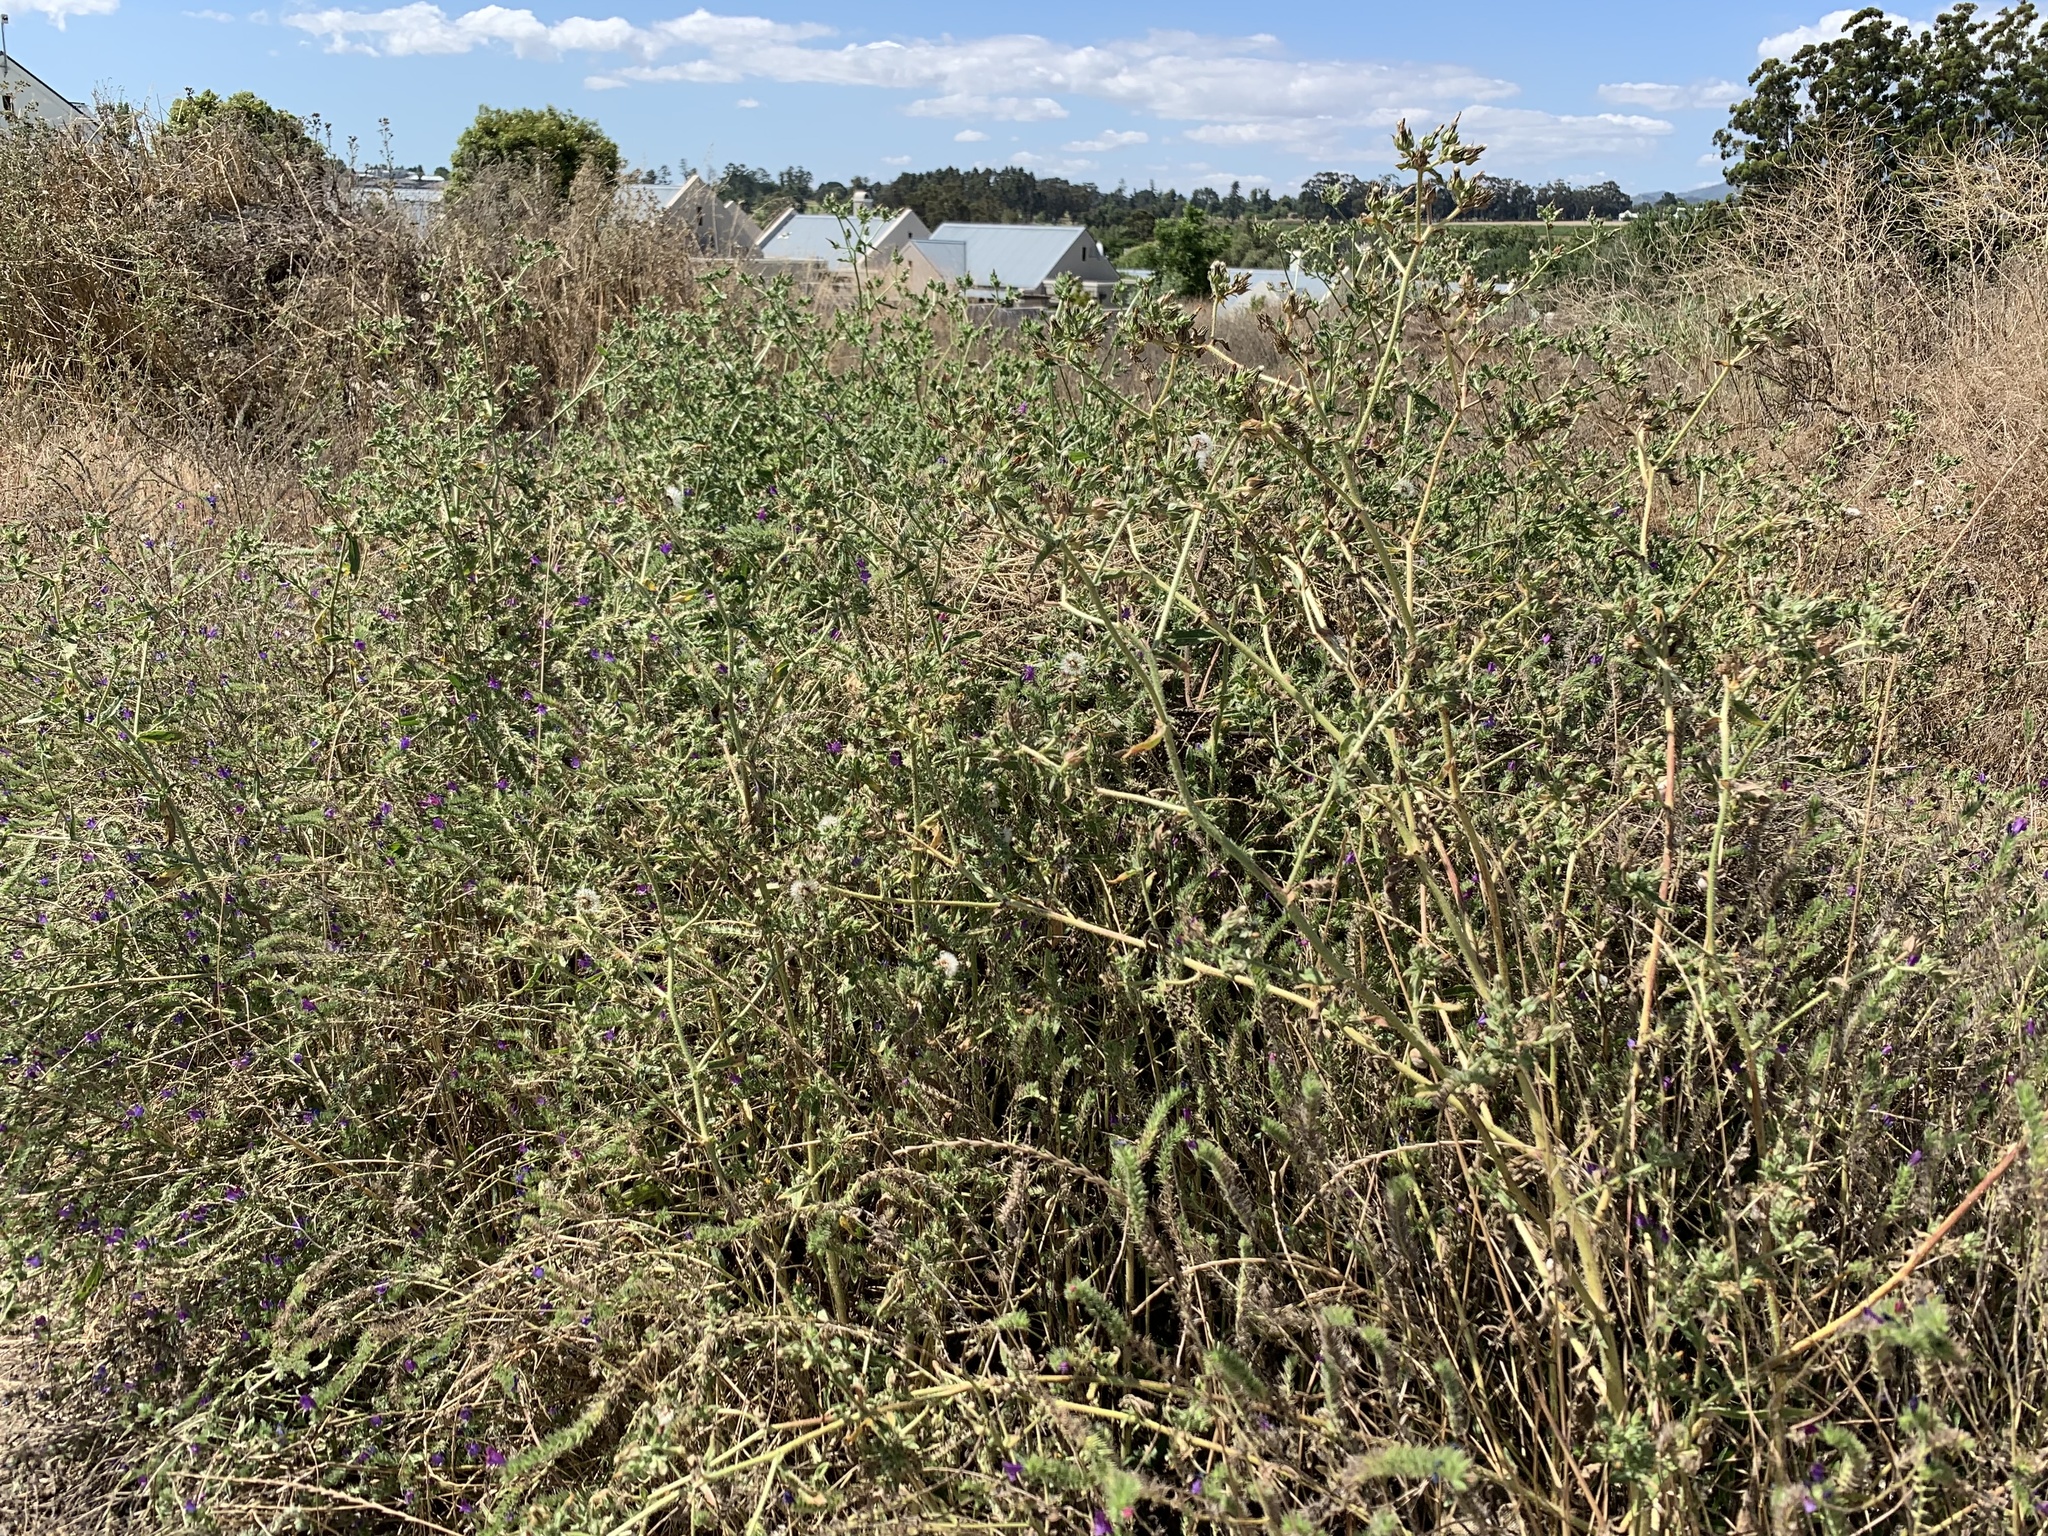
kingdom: Plantae
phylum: Tracheophyta
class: Magnoliopsida
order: Asterales
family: Asteraceae
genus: Helminthotheca
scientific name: Helminthotheca echioides
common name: Ox-tongue
